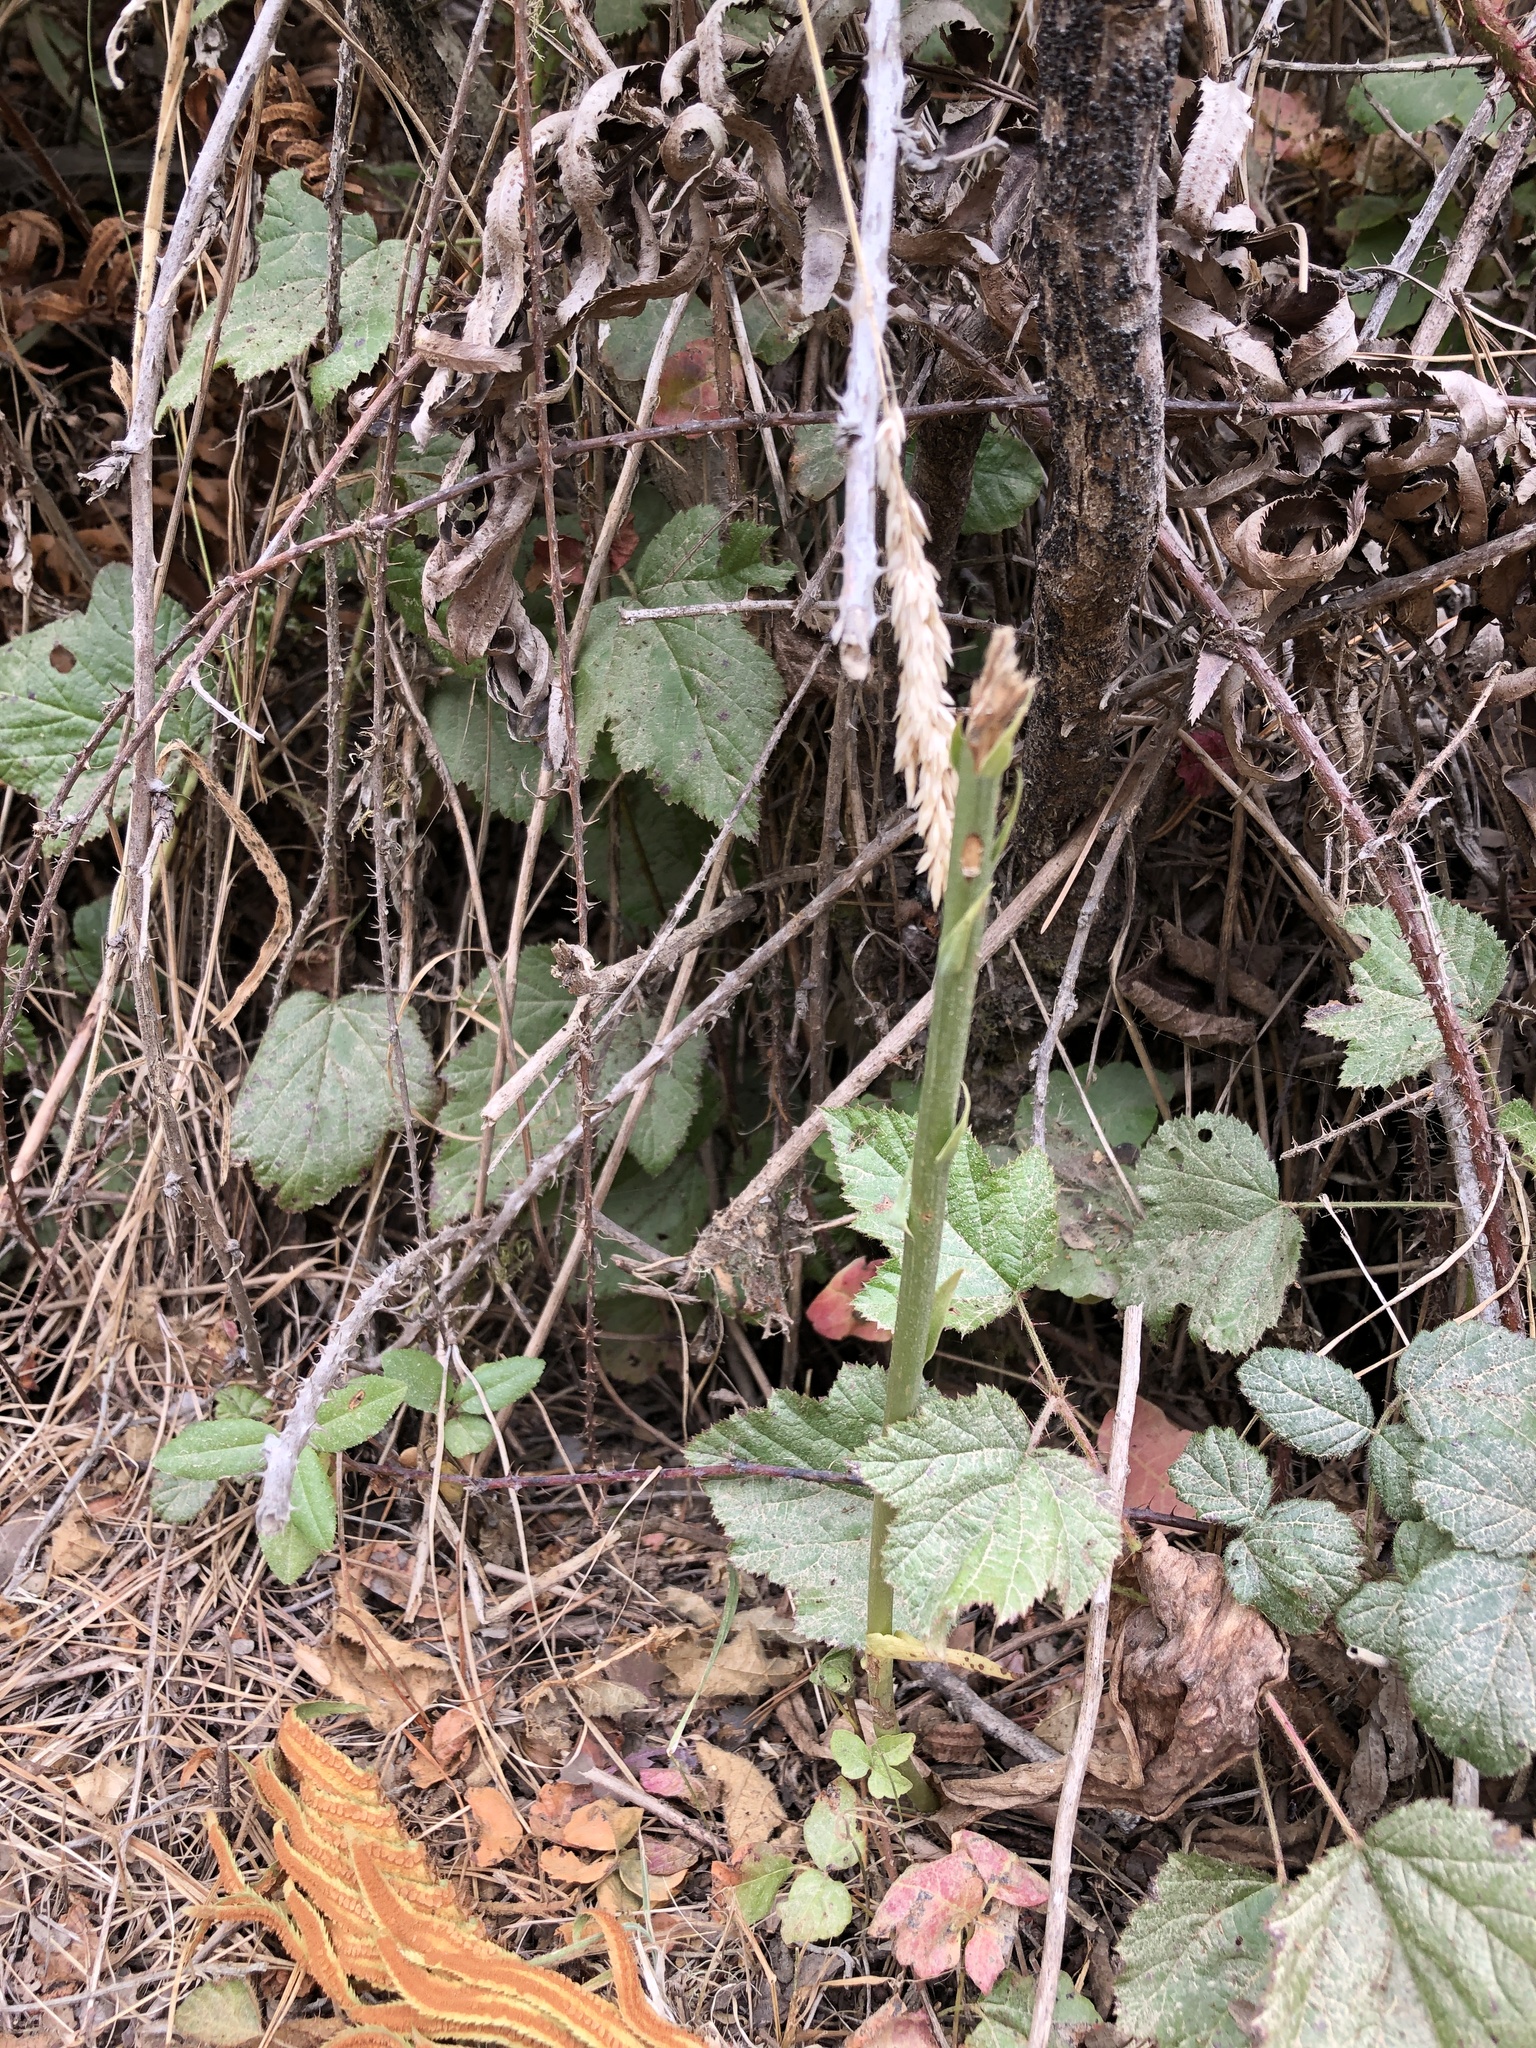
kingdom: Plantae
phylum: Tracheophyta
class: Liliopsida
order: Asparagales
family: Orchidaceae
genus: Platanthera
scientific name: Platanthera elongata
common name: Dense-flowered rein orchid
